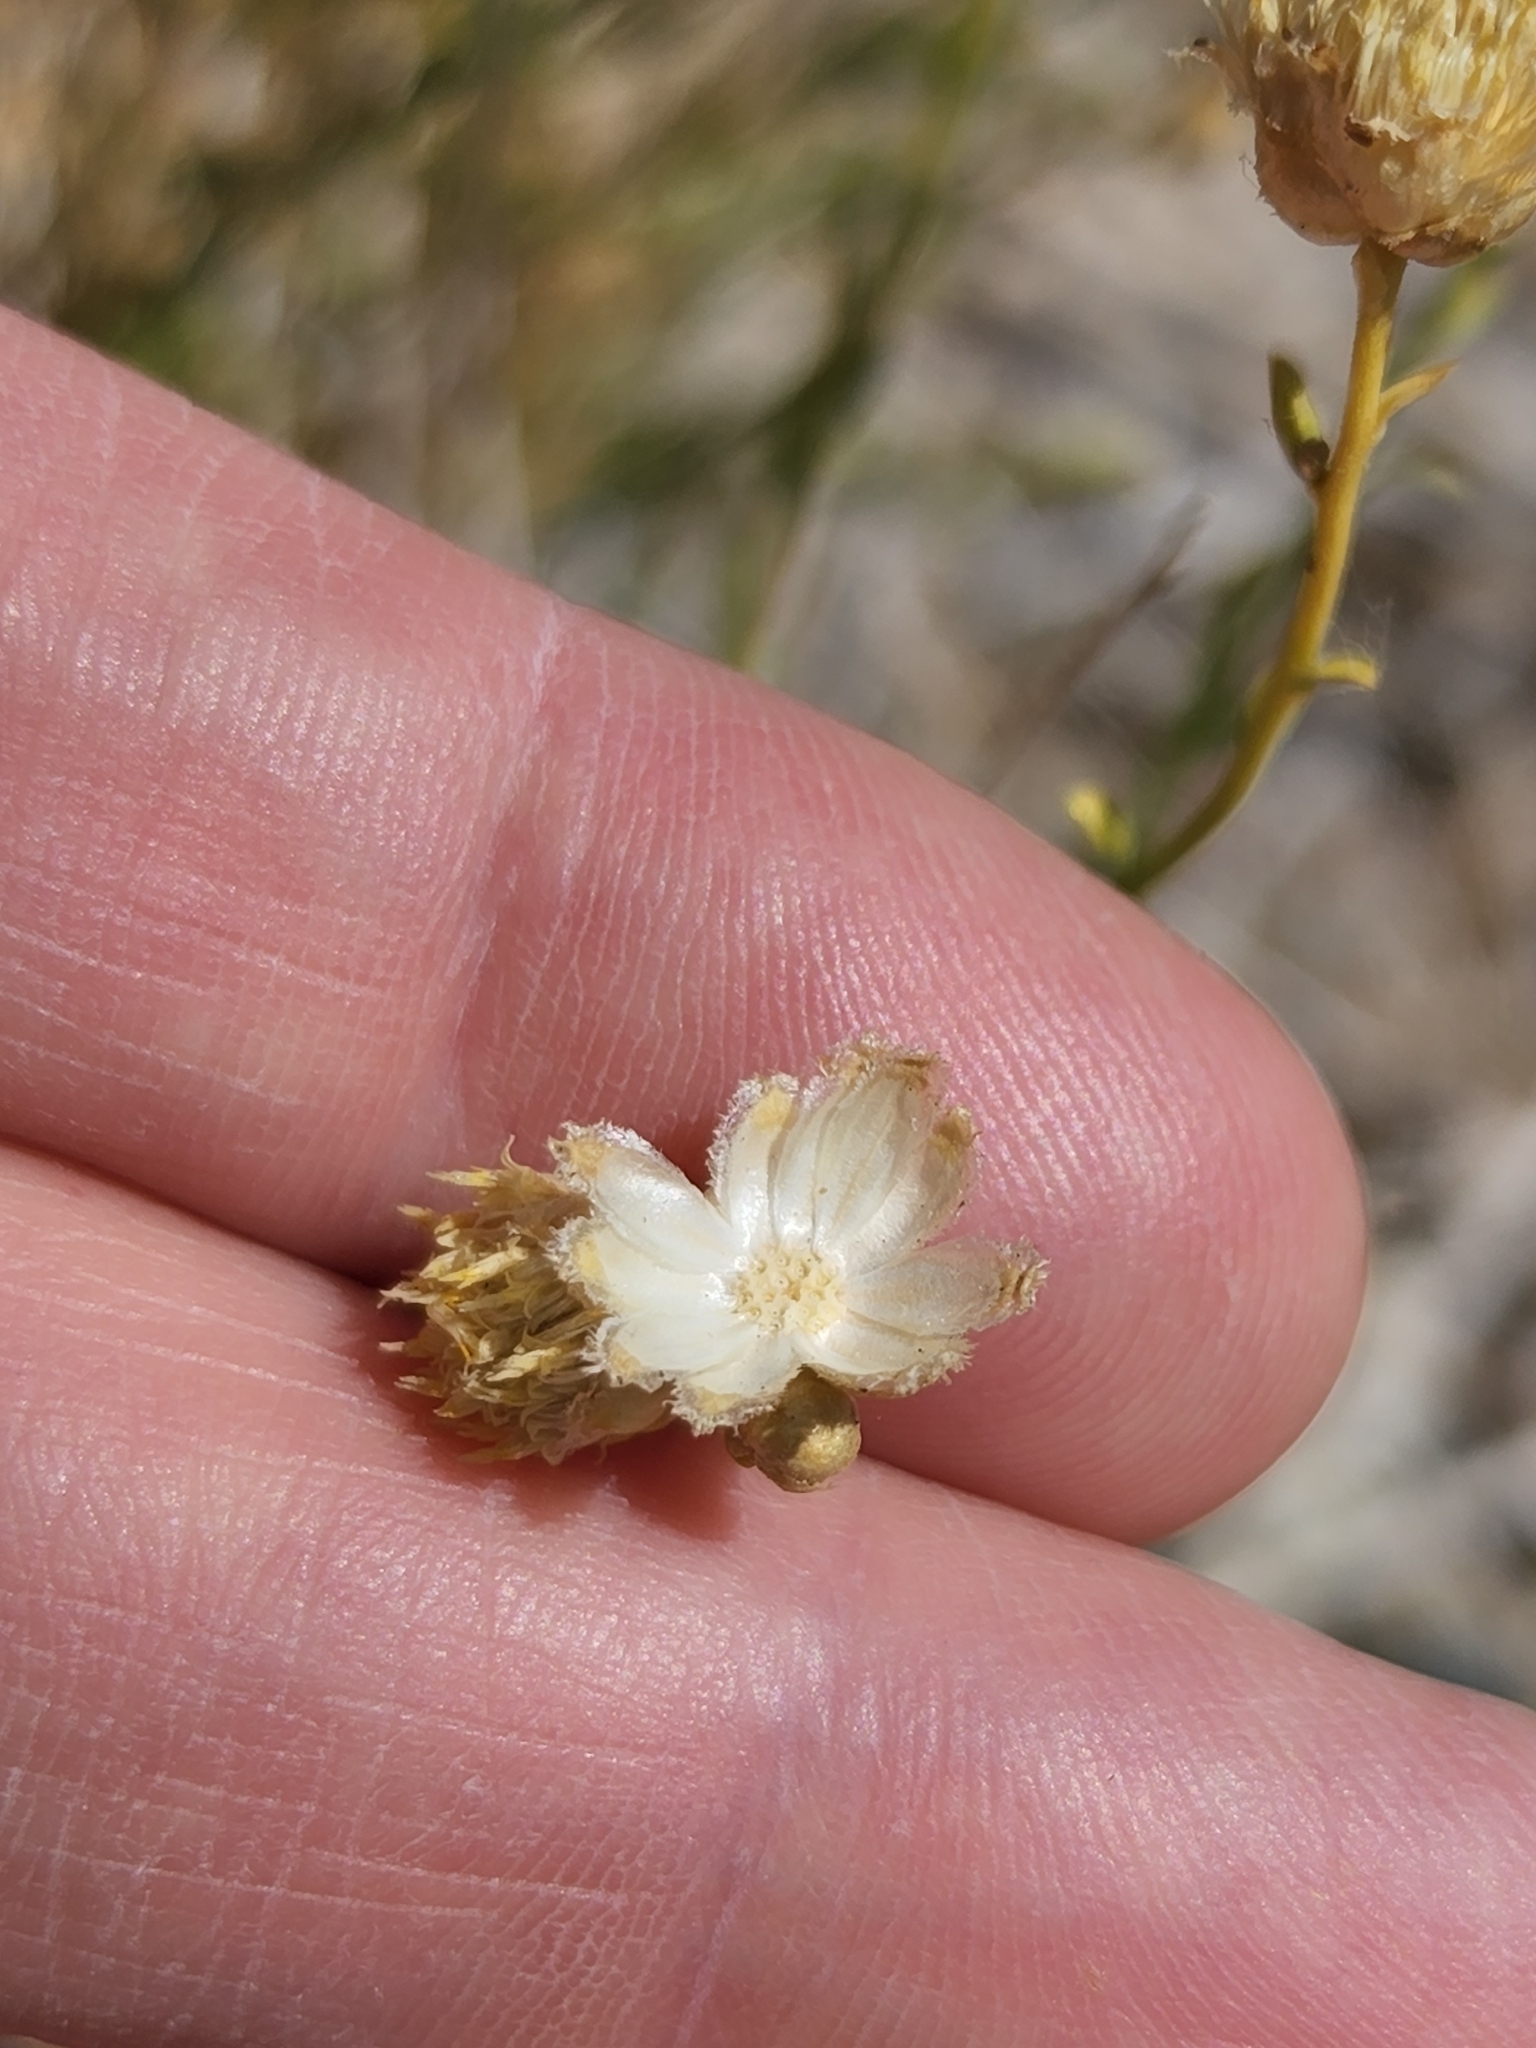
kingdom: Plantae
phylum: Tracheophyta
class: Magnoliopsida
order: Asterales
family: Asteraceae
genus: Acamptopappus
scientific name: Acamptopappus sphaerocephalus
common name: Goldenhead
